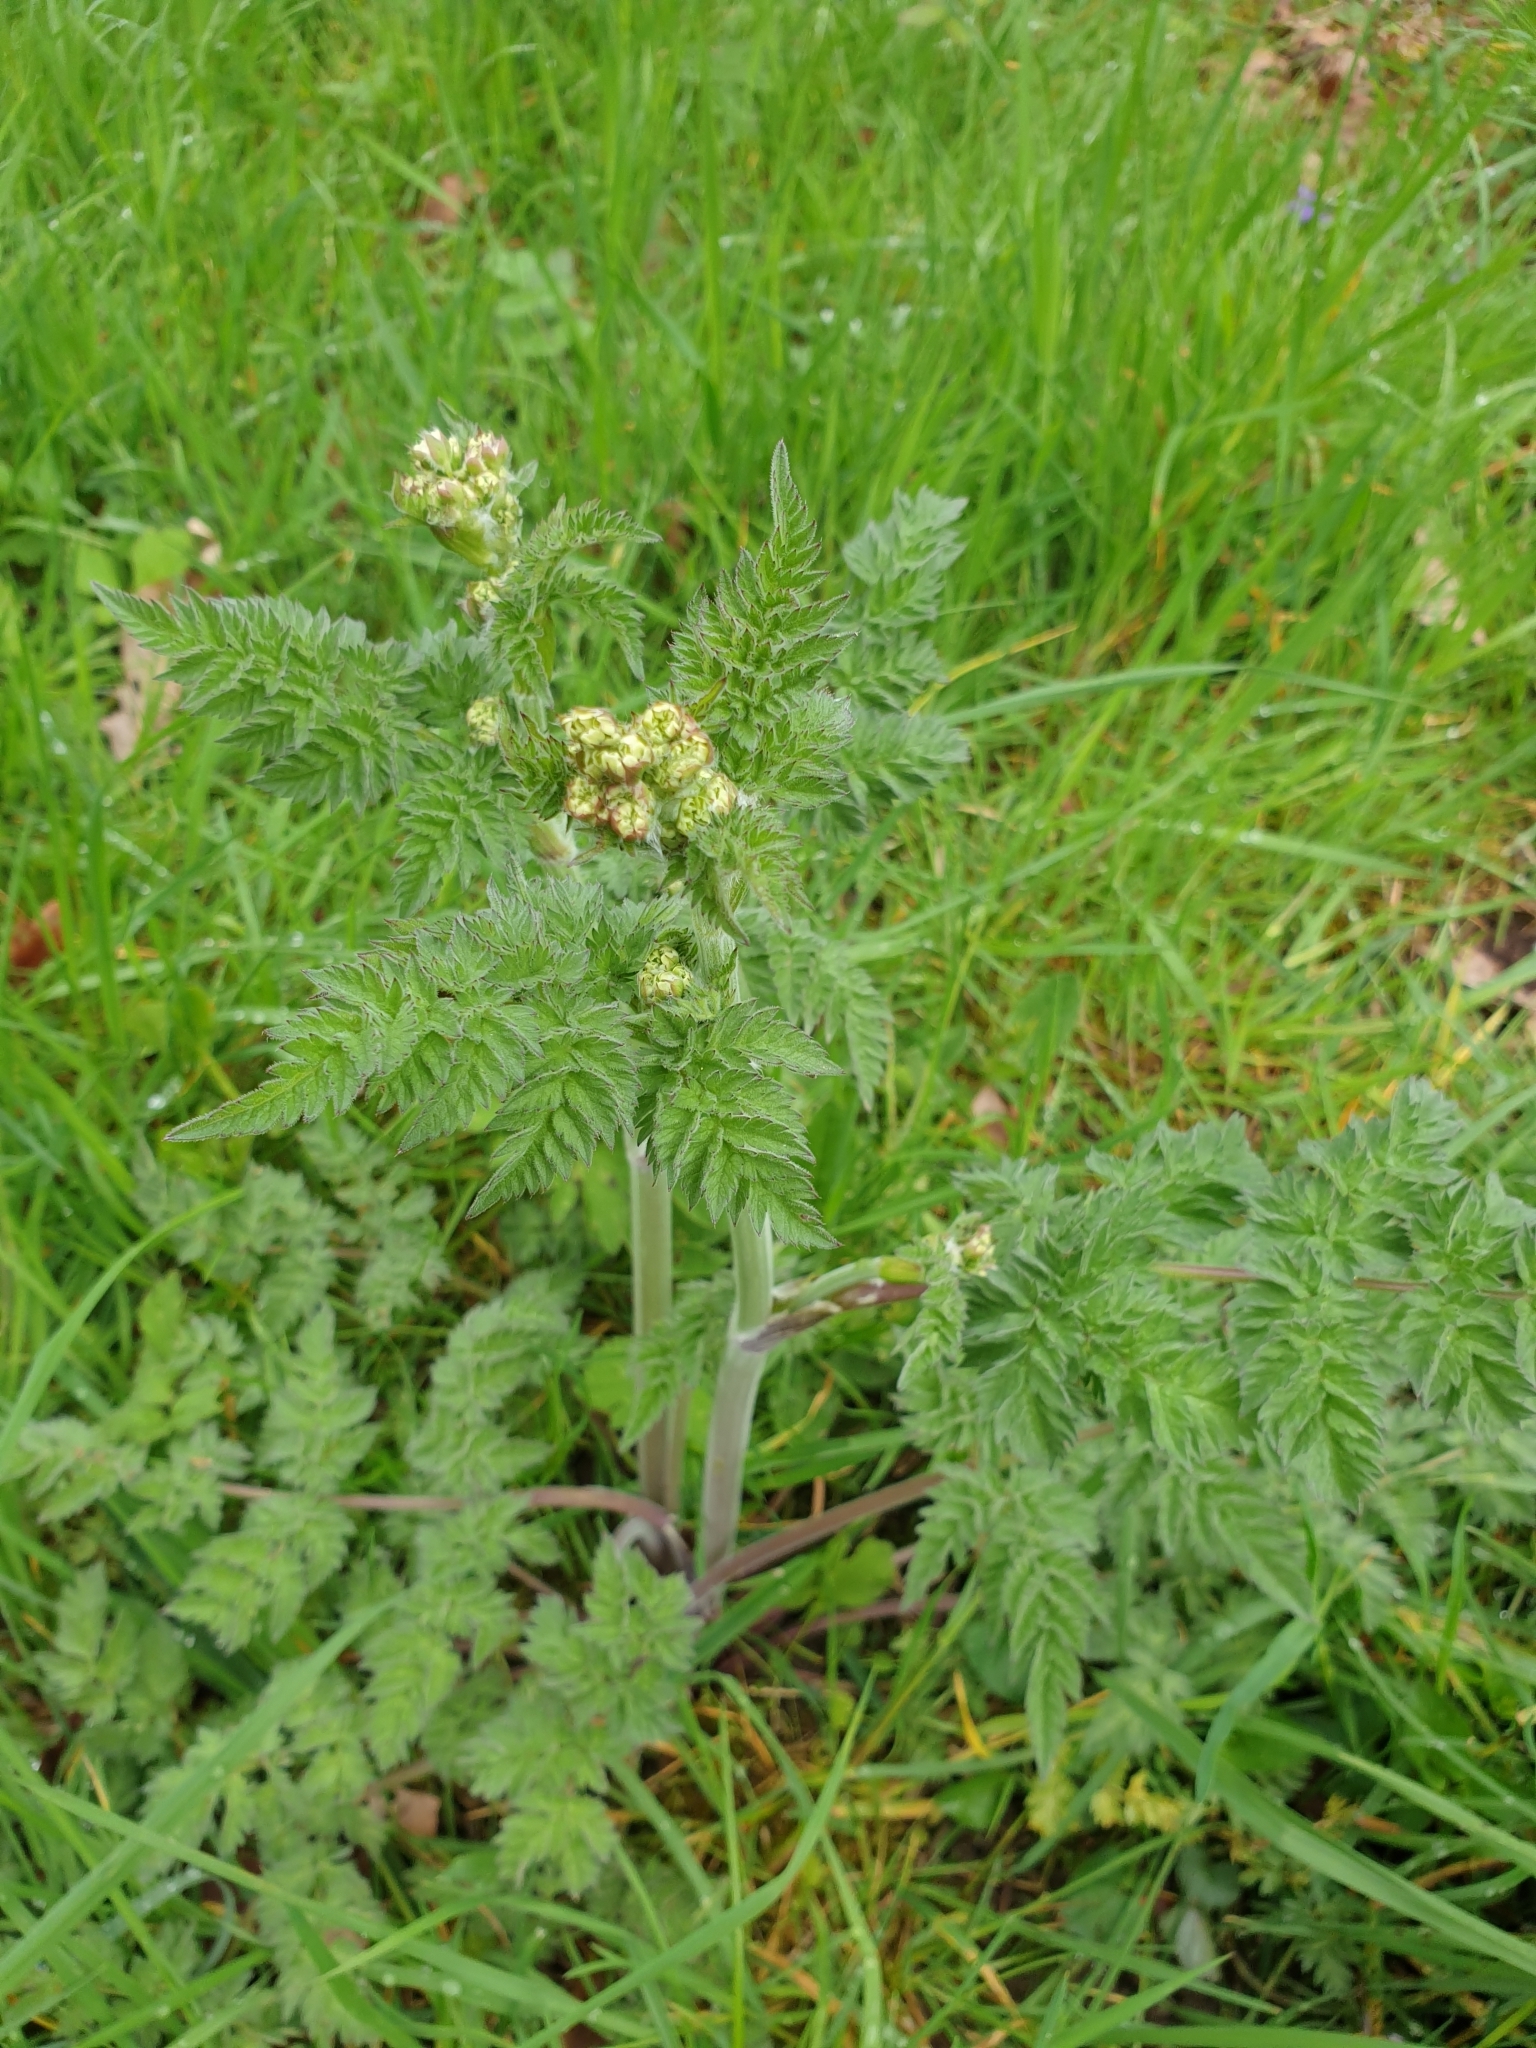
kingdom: Plantae
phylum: Tracheophyta
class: Magnoliopsida
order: Apiales
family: Apiaceae
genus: Anthriscus
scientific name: Anthriscus sylvestris
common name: Cow parsley
